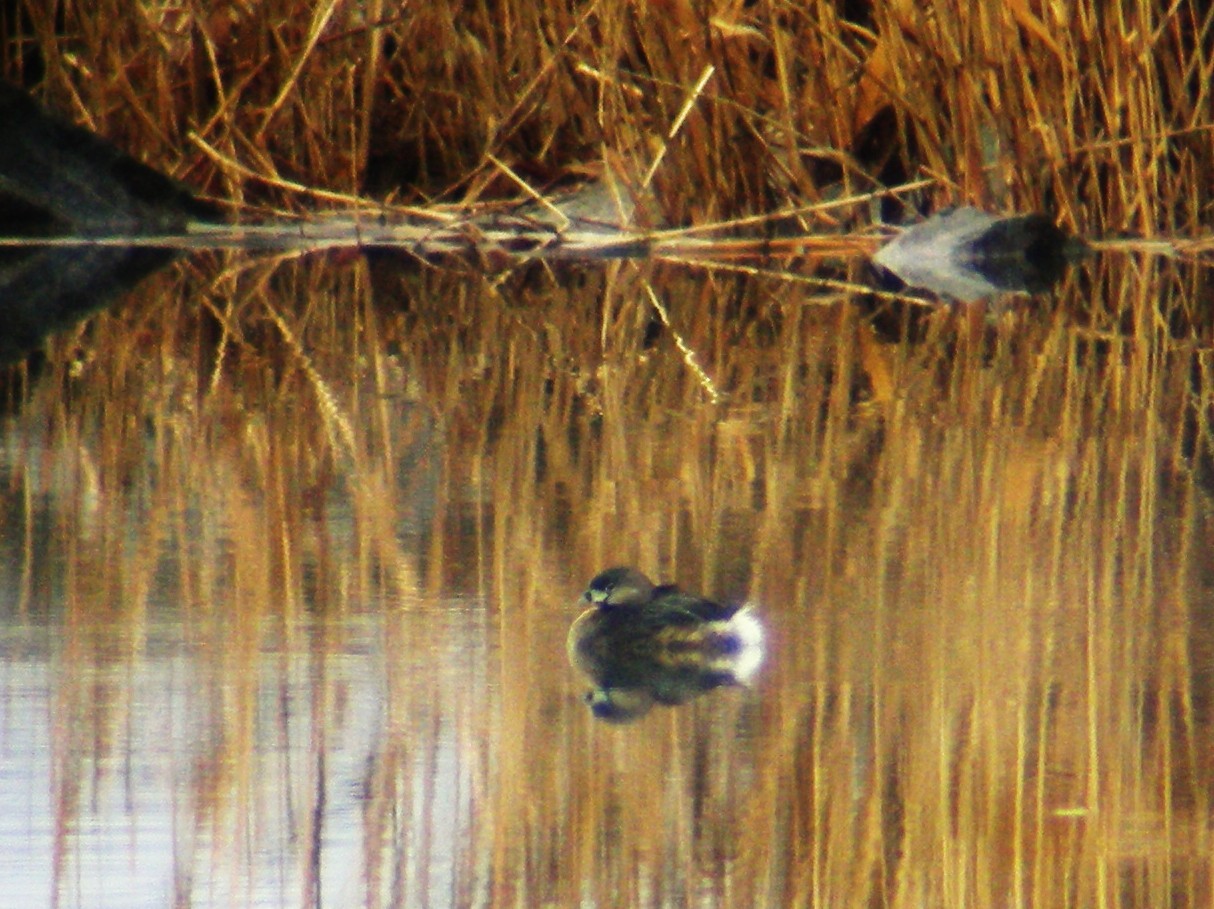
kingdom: Animalia
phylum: Chordata
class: Aves
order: Podicipediformes
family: Podicipedidae
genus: Podilymbus
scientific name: Podilymbus podiceps
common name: Pied-billed grebe
